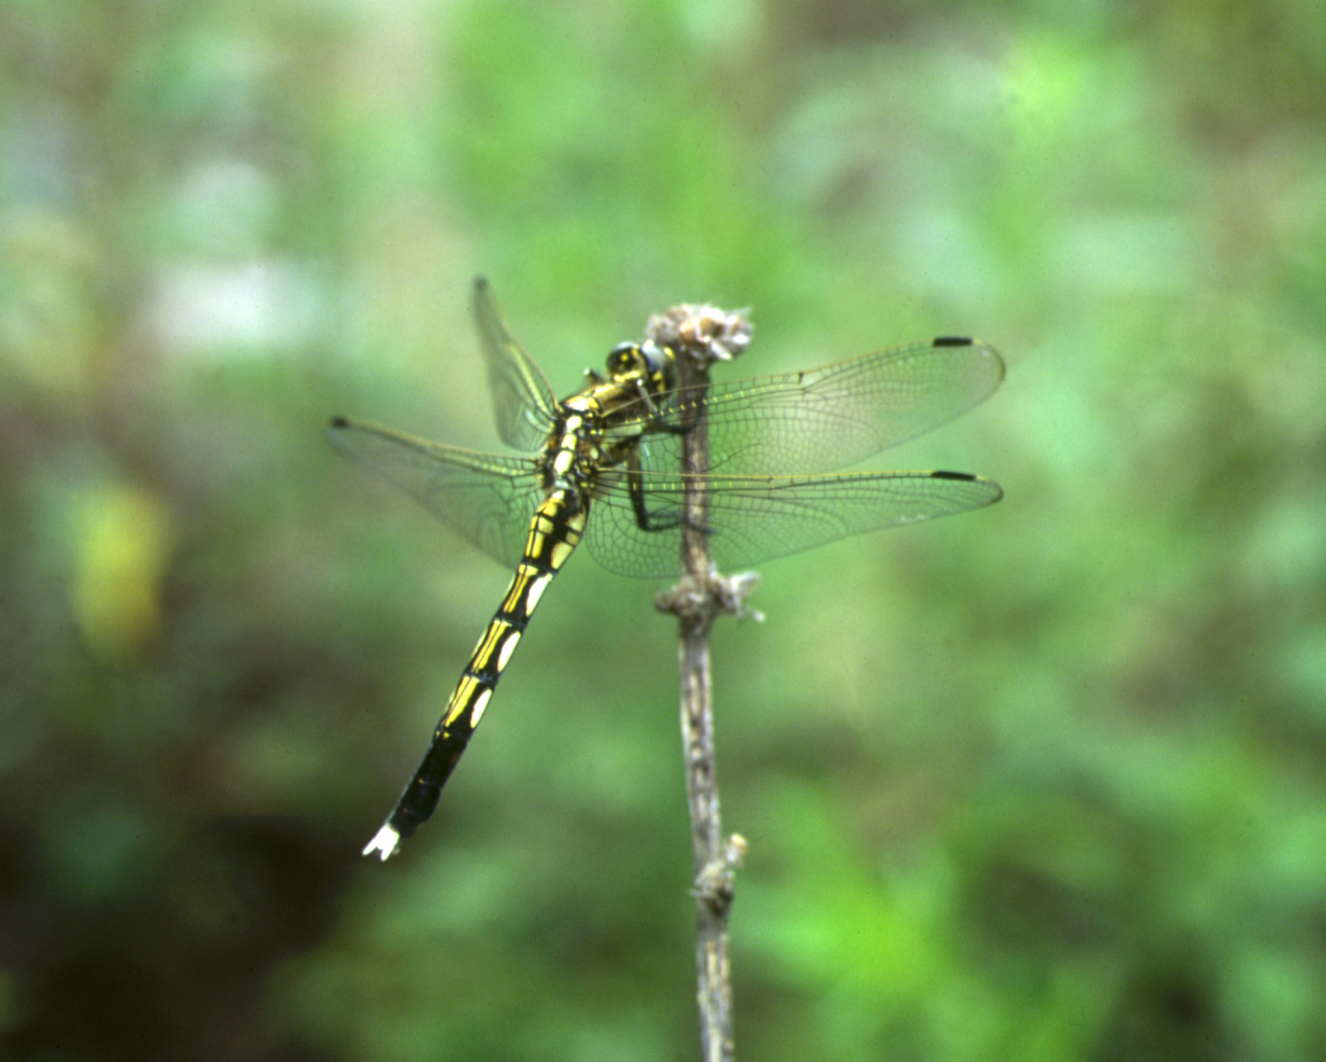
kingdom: Animalia
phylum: Arthropoda
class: Insecta
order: Odonata
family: Libellulidae
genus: Orthetrum
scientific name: Orthetrum albistylum
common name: White-tailed skimmer
